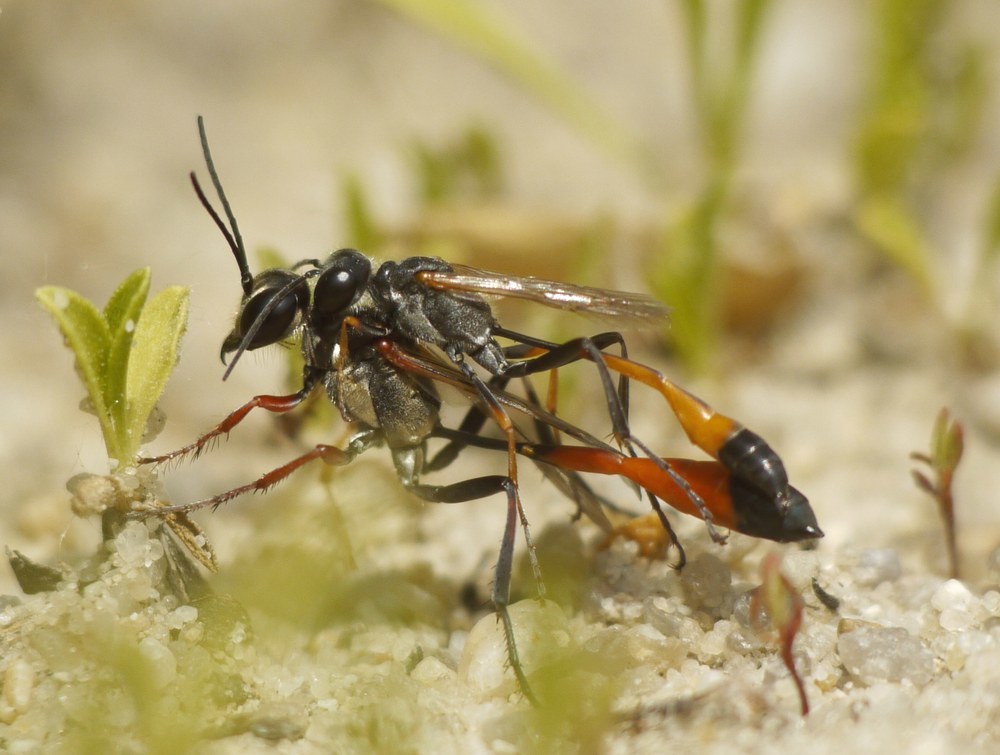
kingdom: Animalia
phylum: Arthropoda
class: Insecta
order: Hymenoptera
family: Sphecidae
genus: Ammophila
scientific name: Ammophila
